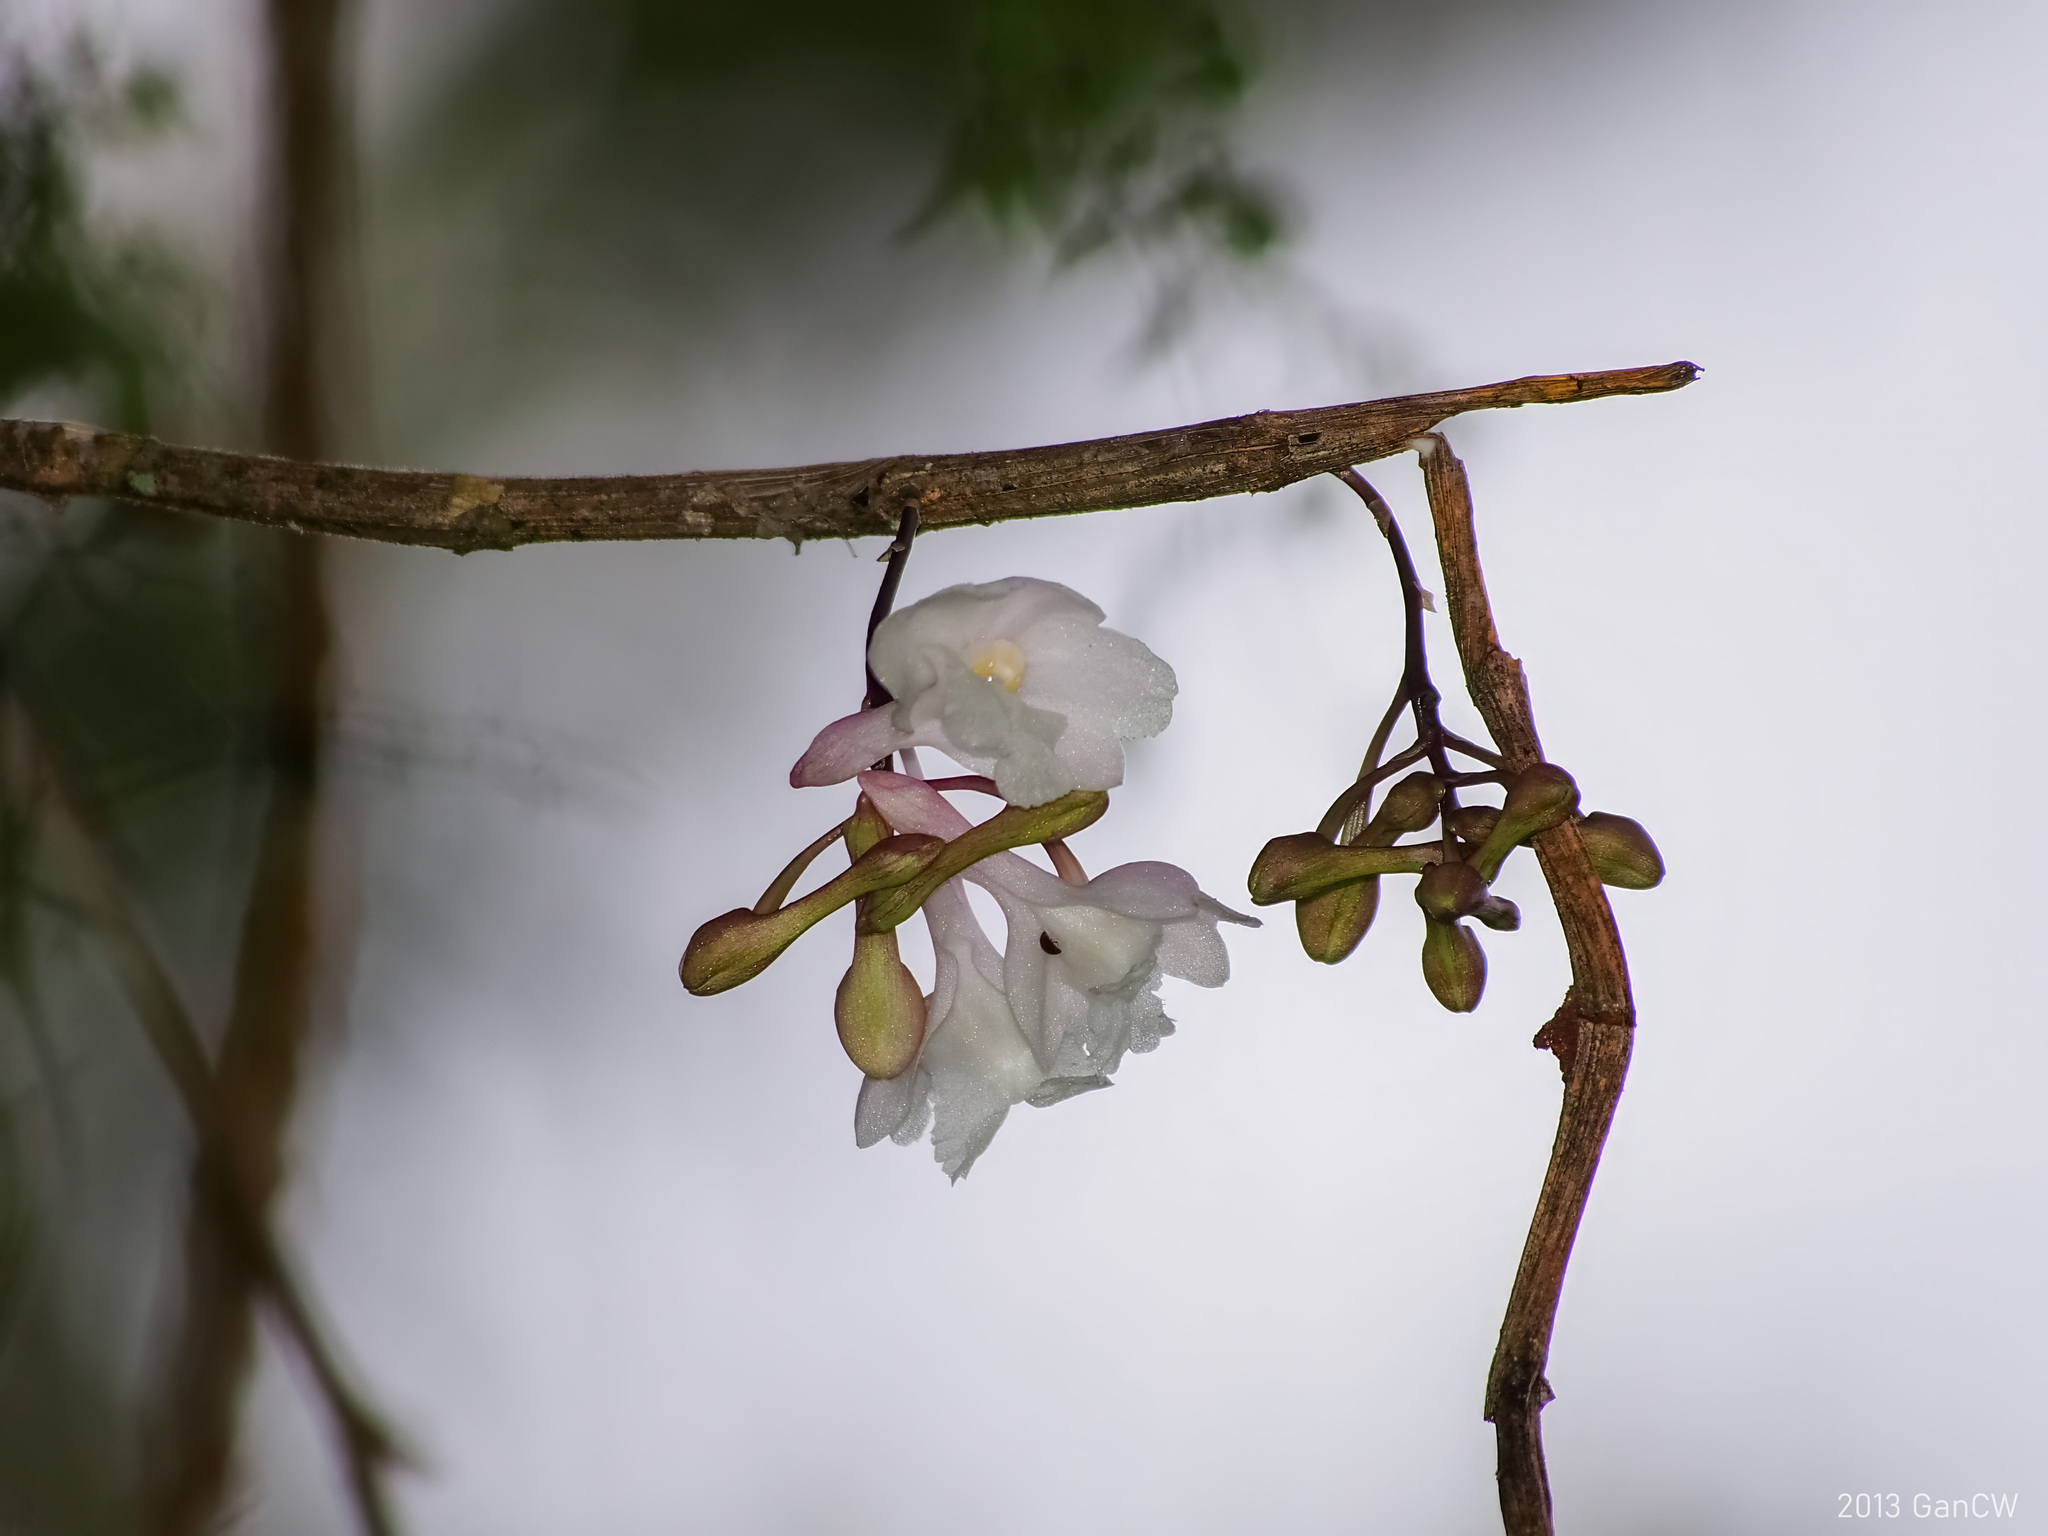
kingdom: Plantae
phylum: Tracheophyta
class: Liliopsida
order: Asparagales
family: Orchidaceae
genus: Dendrobium
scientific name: Dendrobium roseatum
